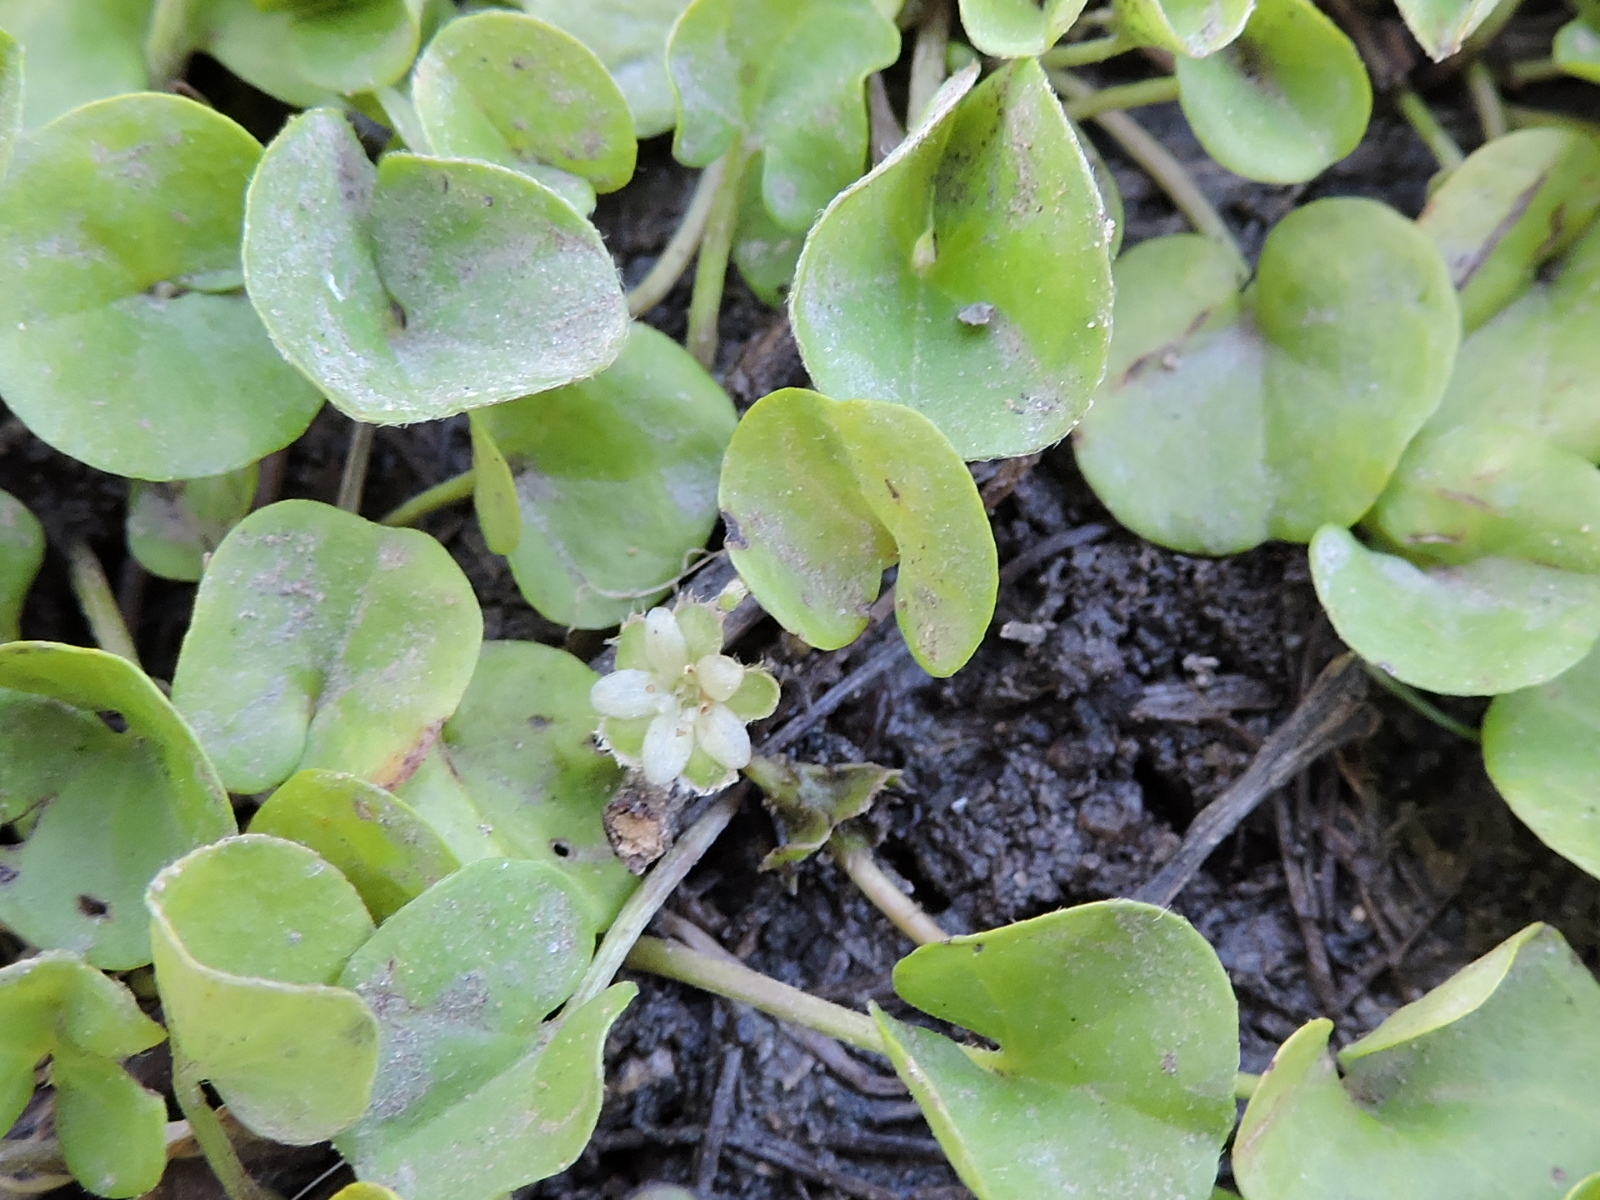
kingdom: Plantae
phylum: Tracheophyta
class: Magnoliopsida
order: Solanales
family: Convolvulaceae
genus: Dichondra
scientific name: Dichondra carolinensis
